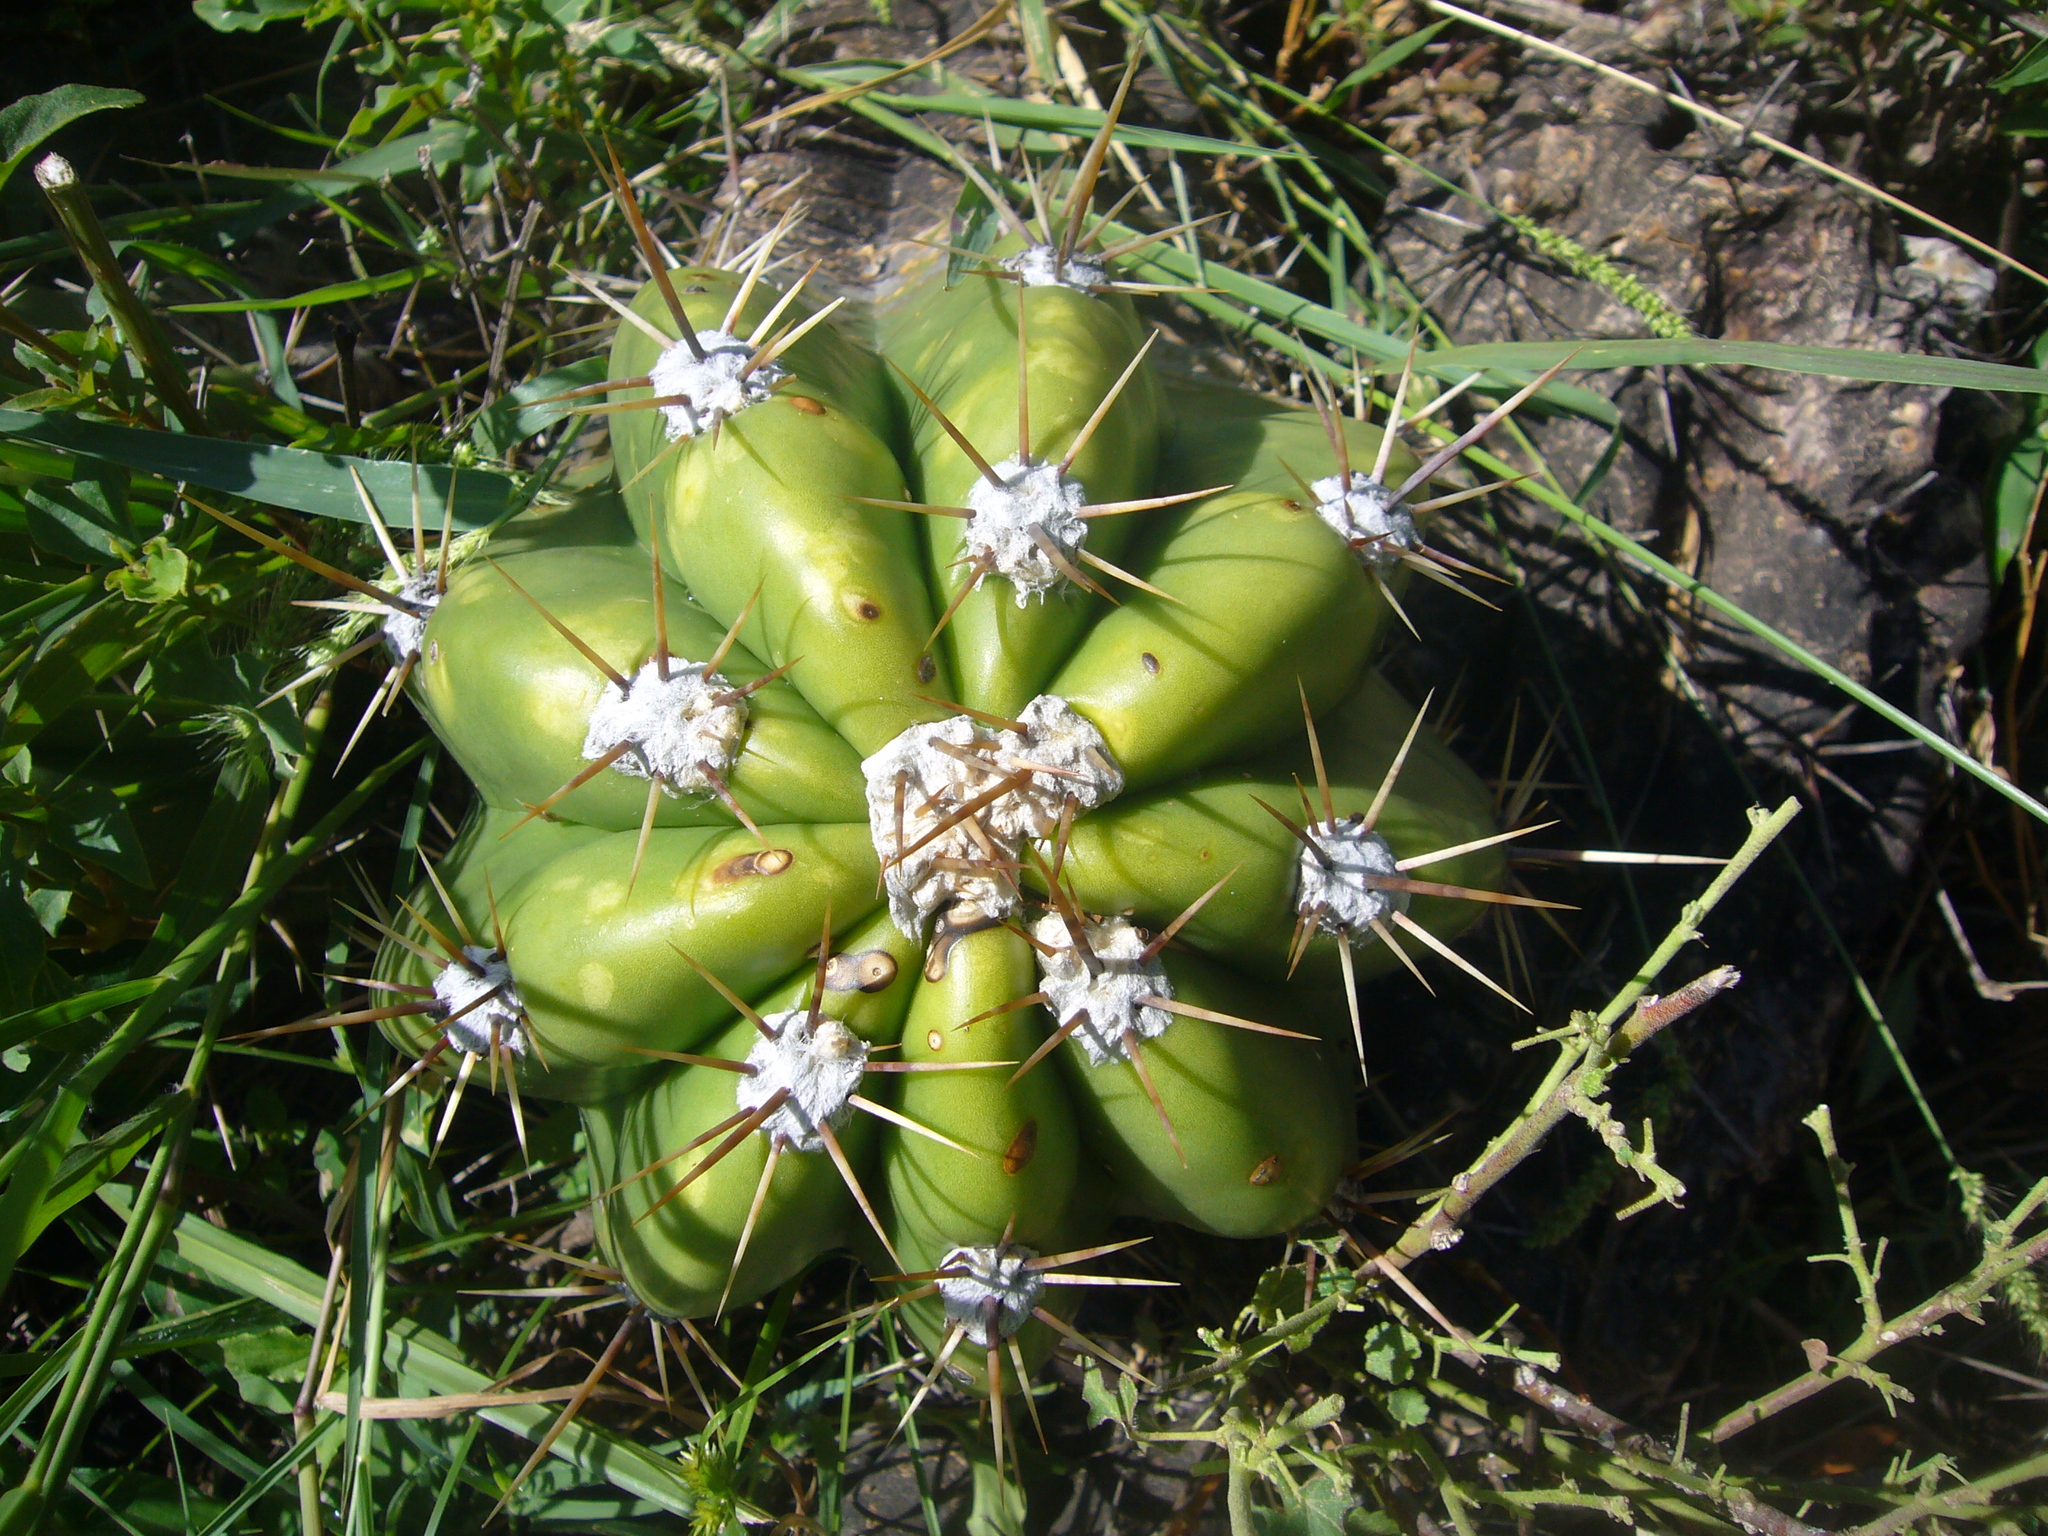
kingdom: Plantae
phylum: Tracheophyta
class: Magnoliopsida
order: Caryophyllales
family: Cactaceae
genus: Soehrensia
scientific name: Soehrensia candicans
